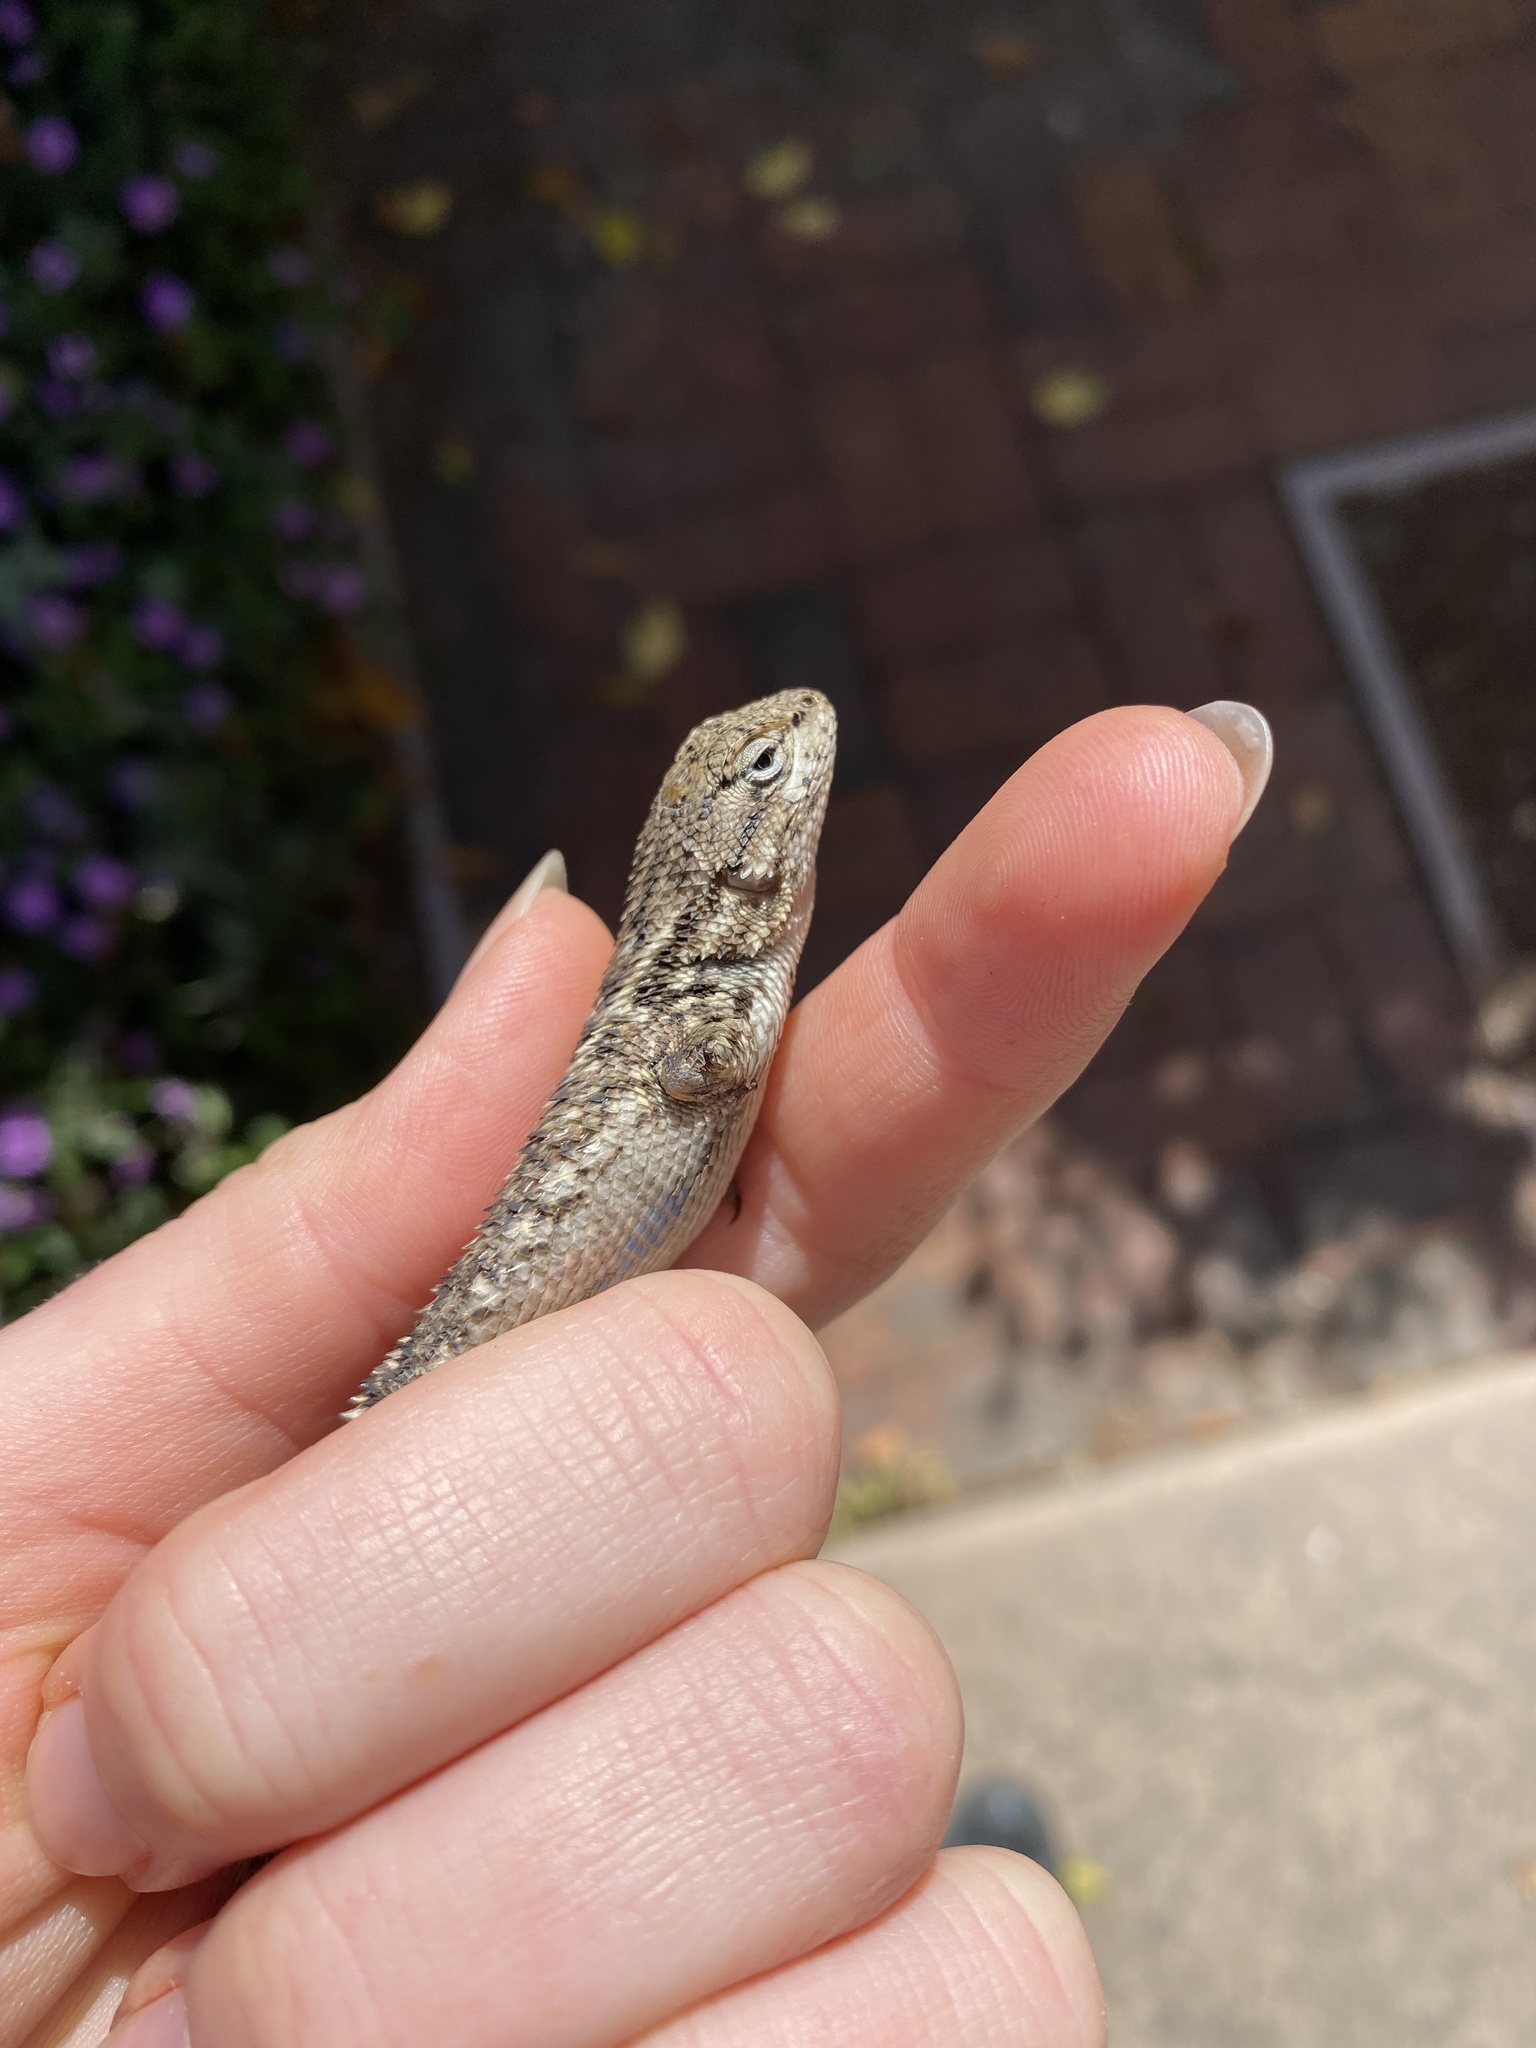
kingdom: Animalia
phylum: Chordata
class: Squamata
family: Phrynosomatidae
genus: Sceloporus
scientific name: Sceloporus occidentalis
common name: Western fence lizard
